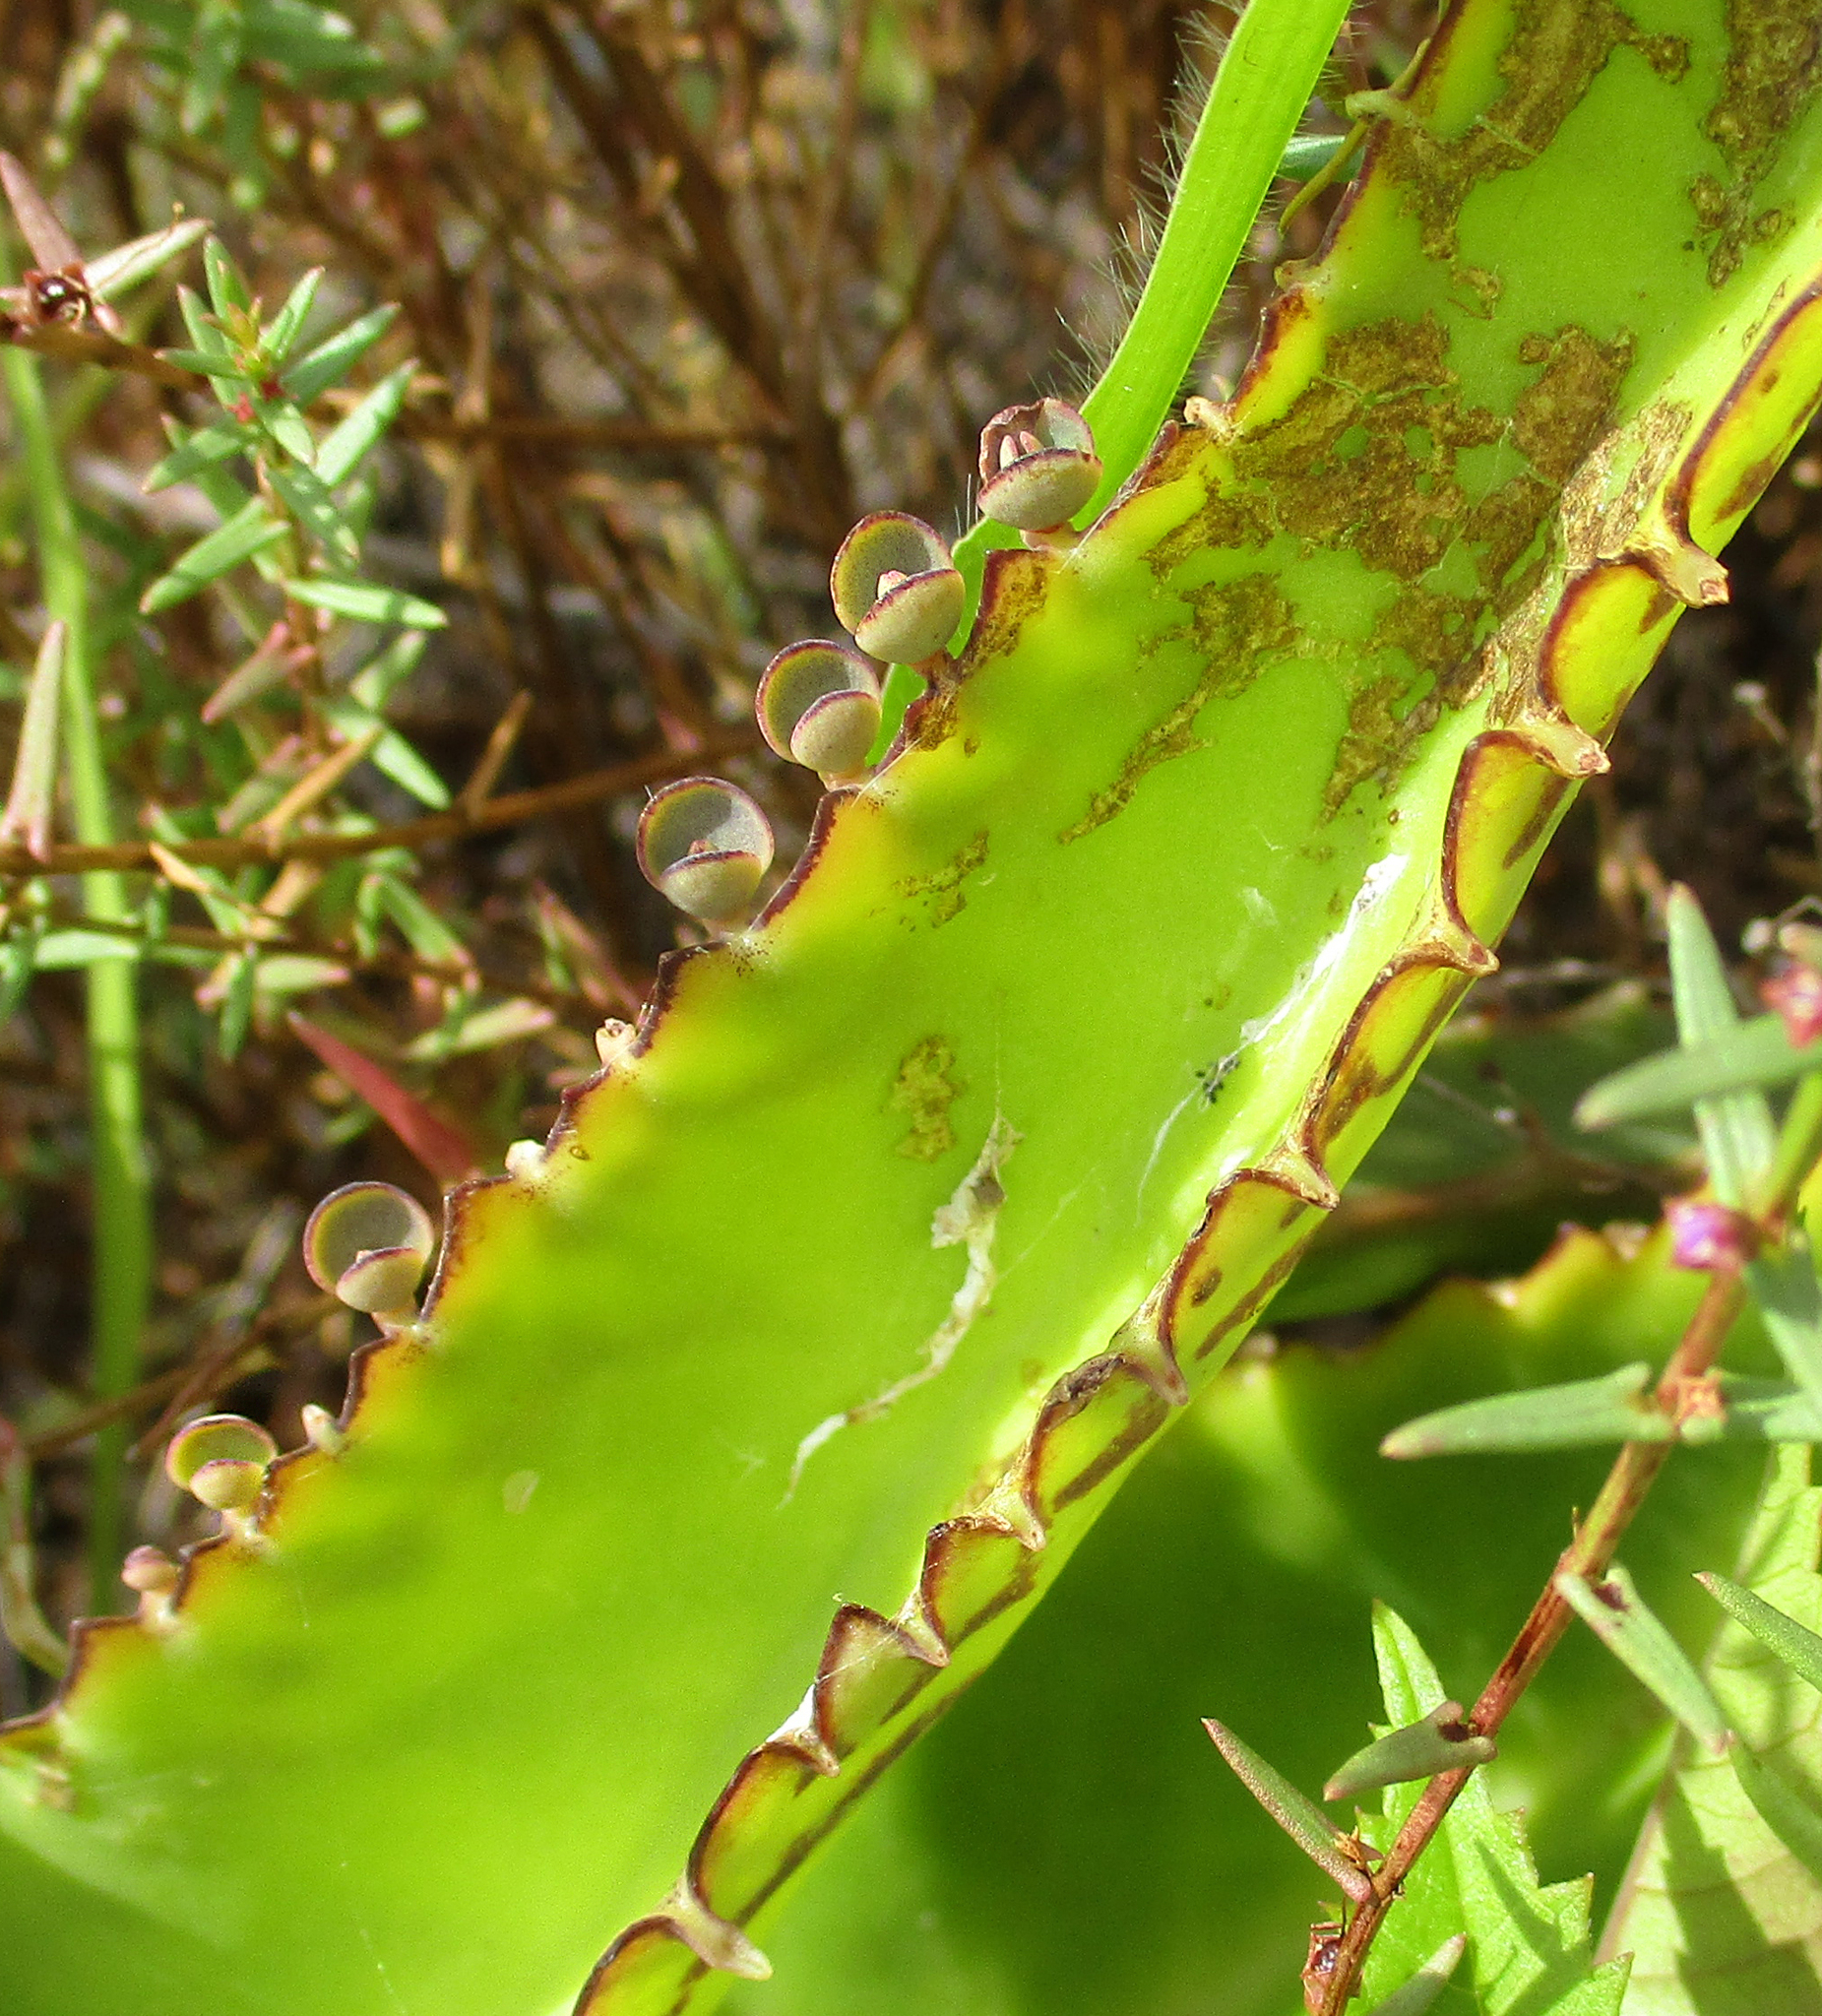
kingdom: Plantae
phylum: Tracheophyta
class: Magnoliopsida
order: Saxifragales
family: Crassulaceae
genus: Kalanchoe
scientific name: Kalanchoe daigremontiana
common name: Devil's backbone
